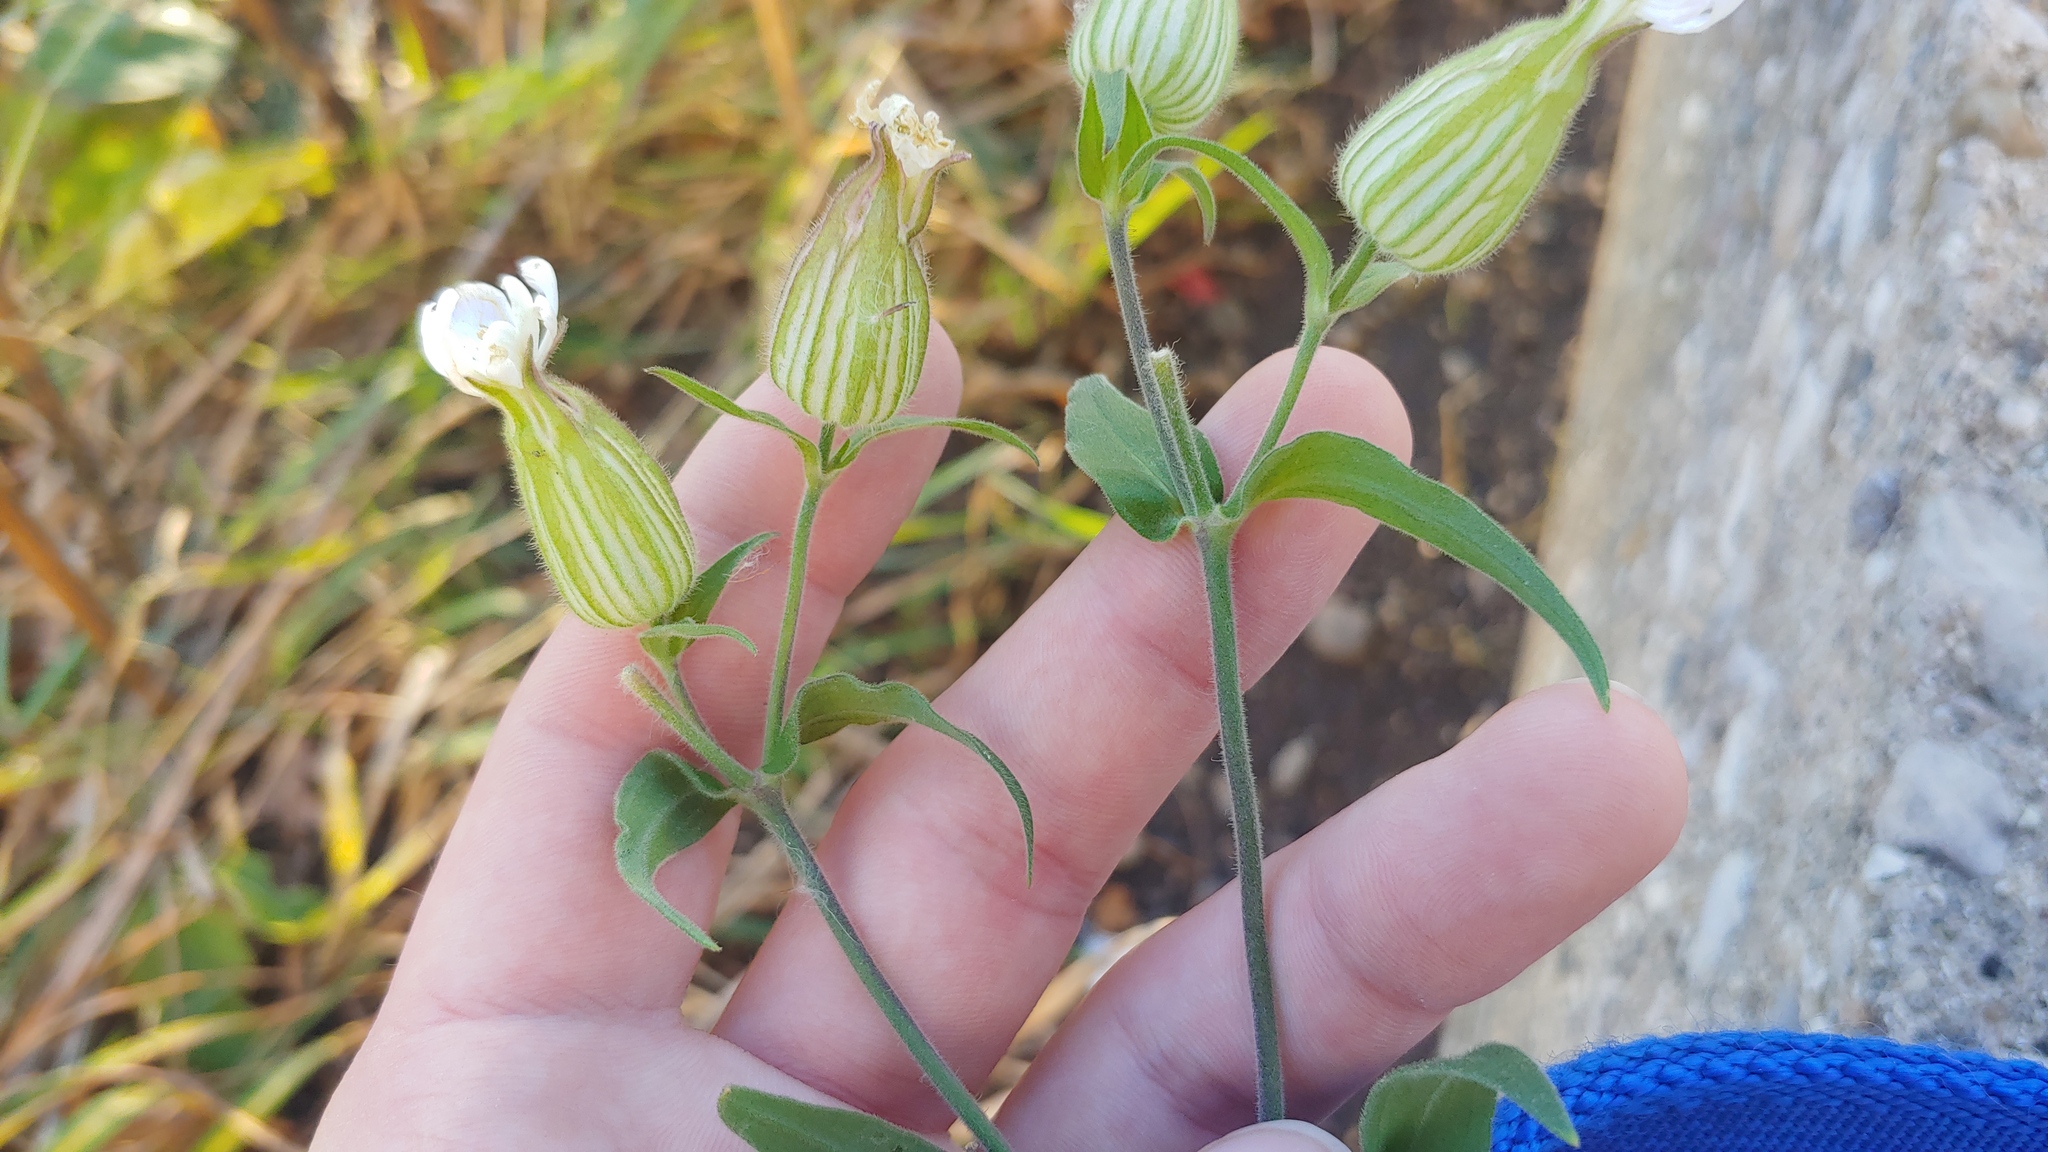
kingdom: Plantae
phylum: Tracheophyta
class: Magnoliopsida
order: Caryophyllales
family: Caryophyllaceae
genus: Silene
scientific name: Silene latifolia
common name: White campion
